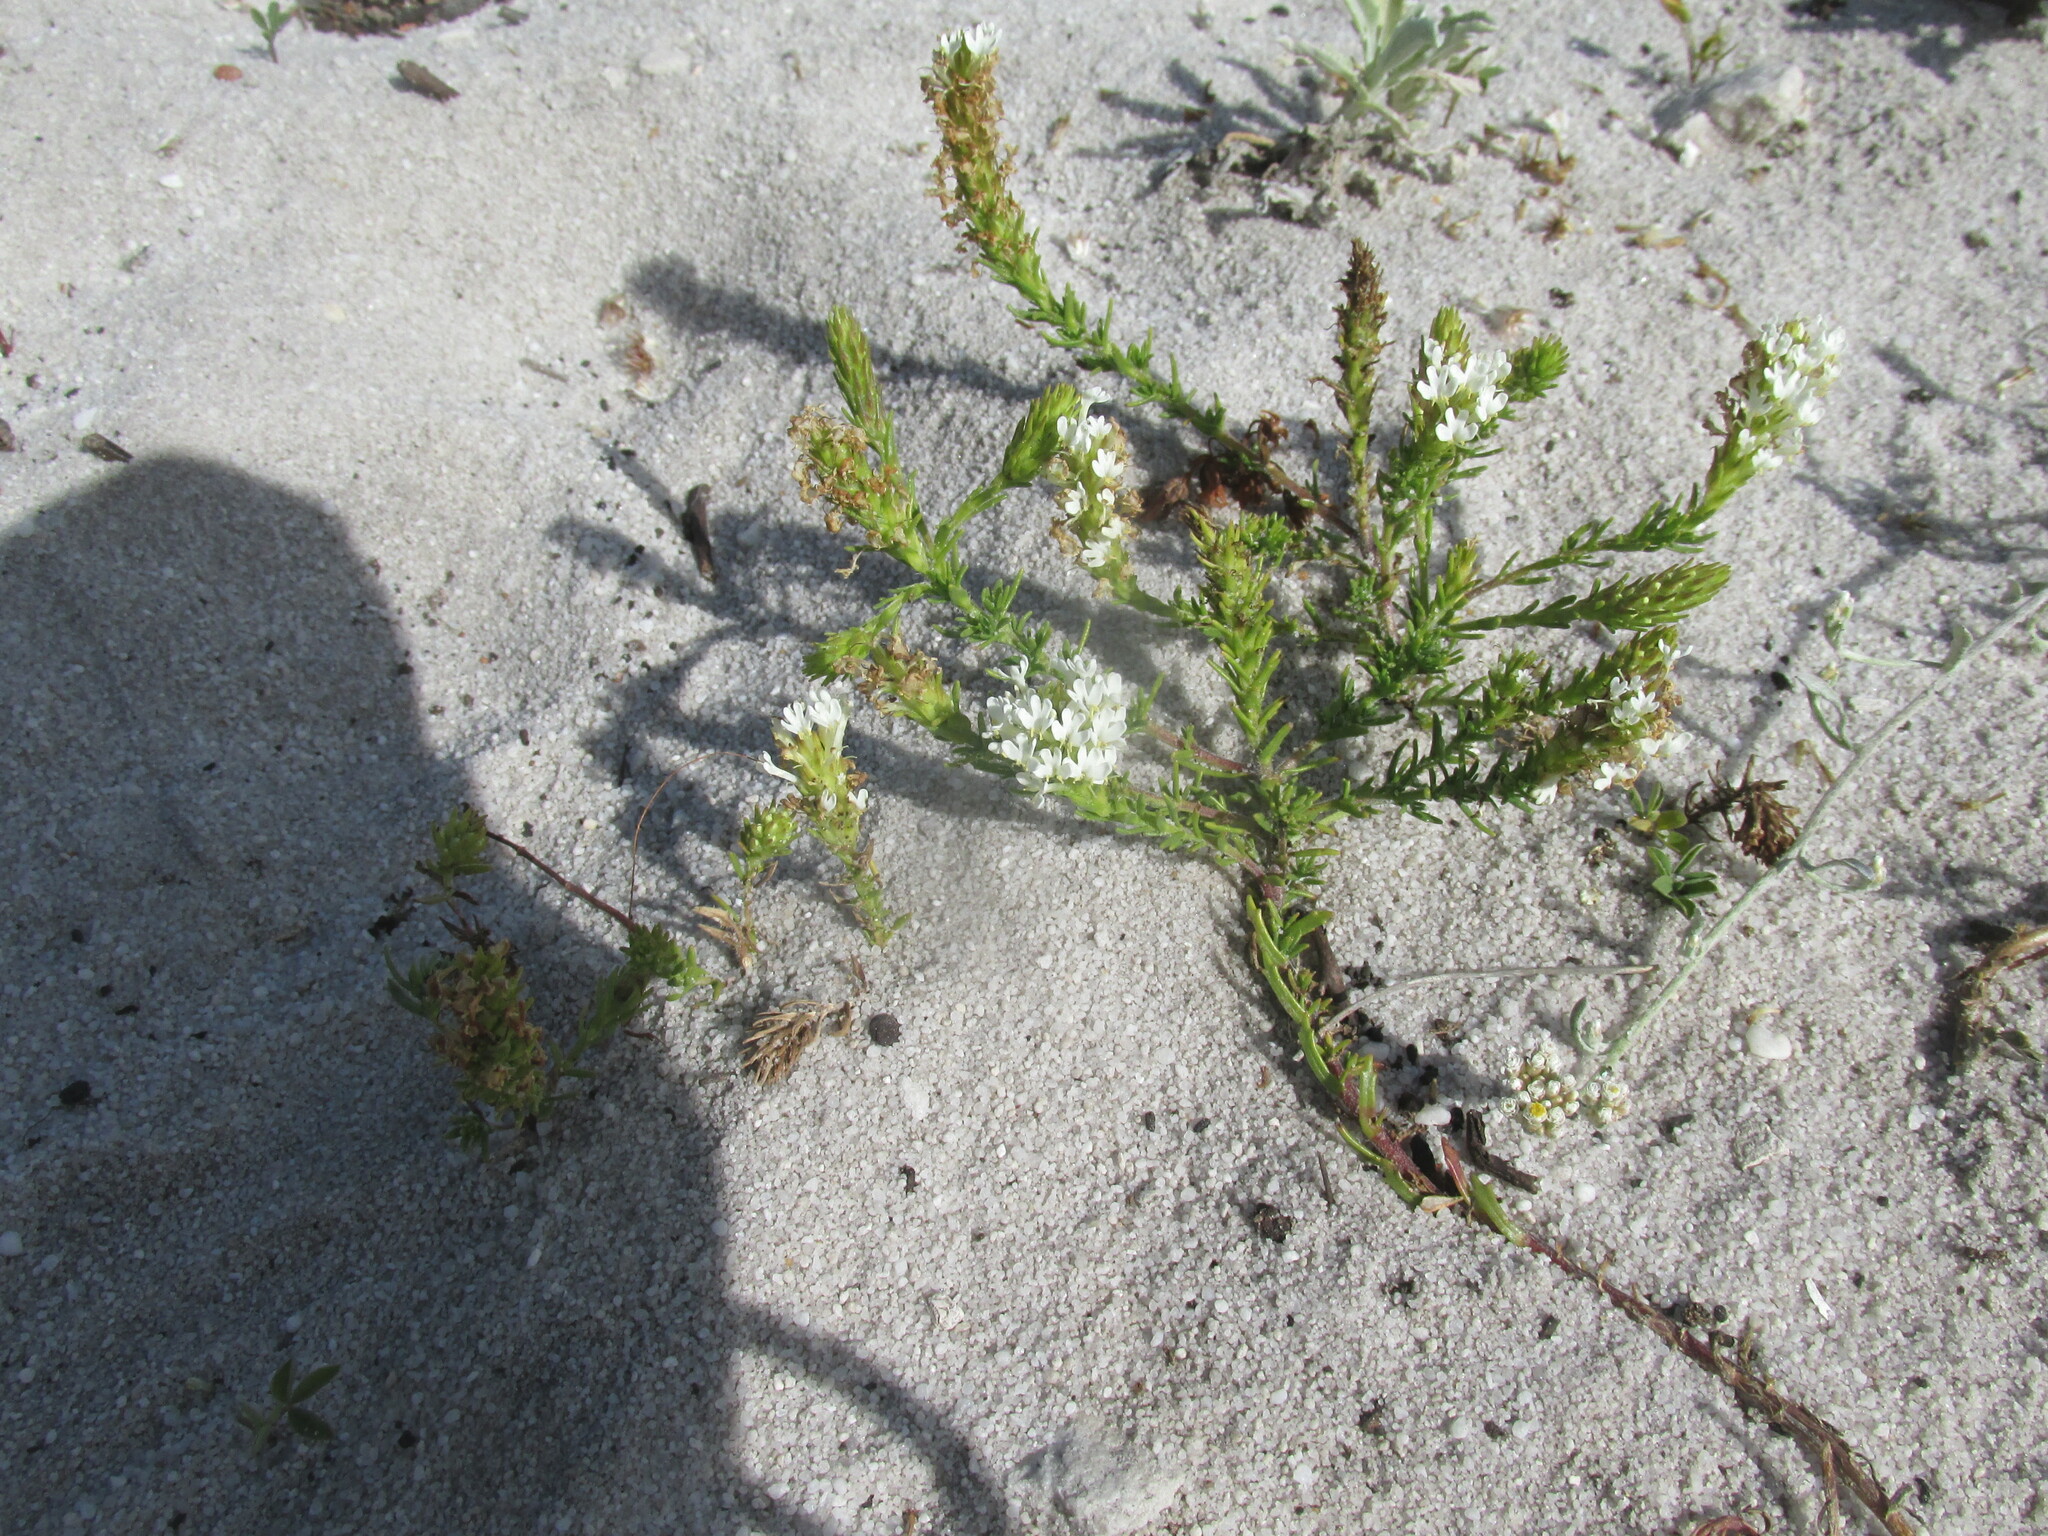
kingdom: Plantae
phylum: Tracheophyta
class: Magnoliopsida
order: Lamiales
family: Scrophulariaceae
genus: Dischisma
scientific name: Dischisma ciliatum
